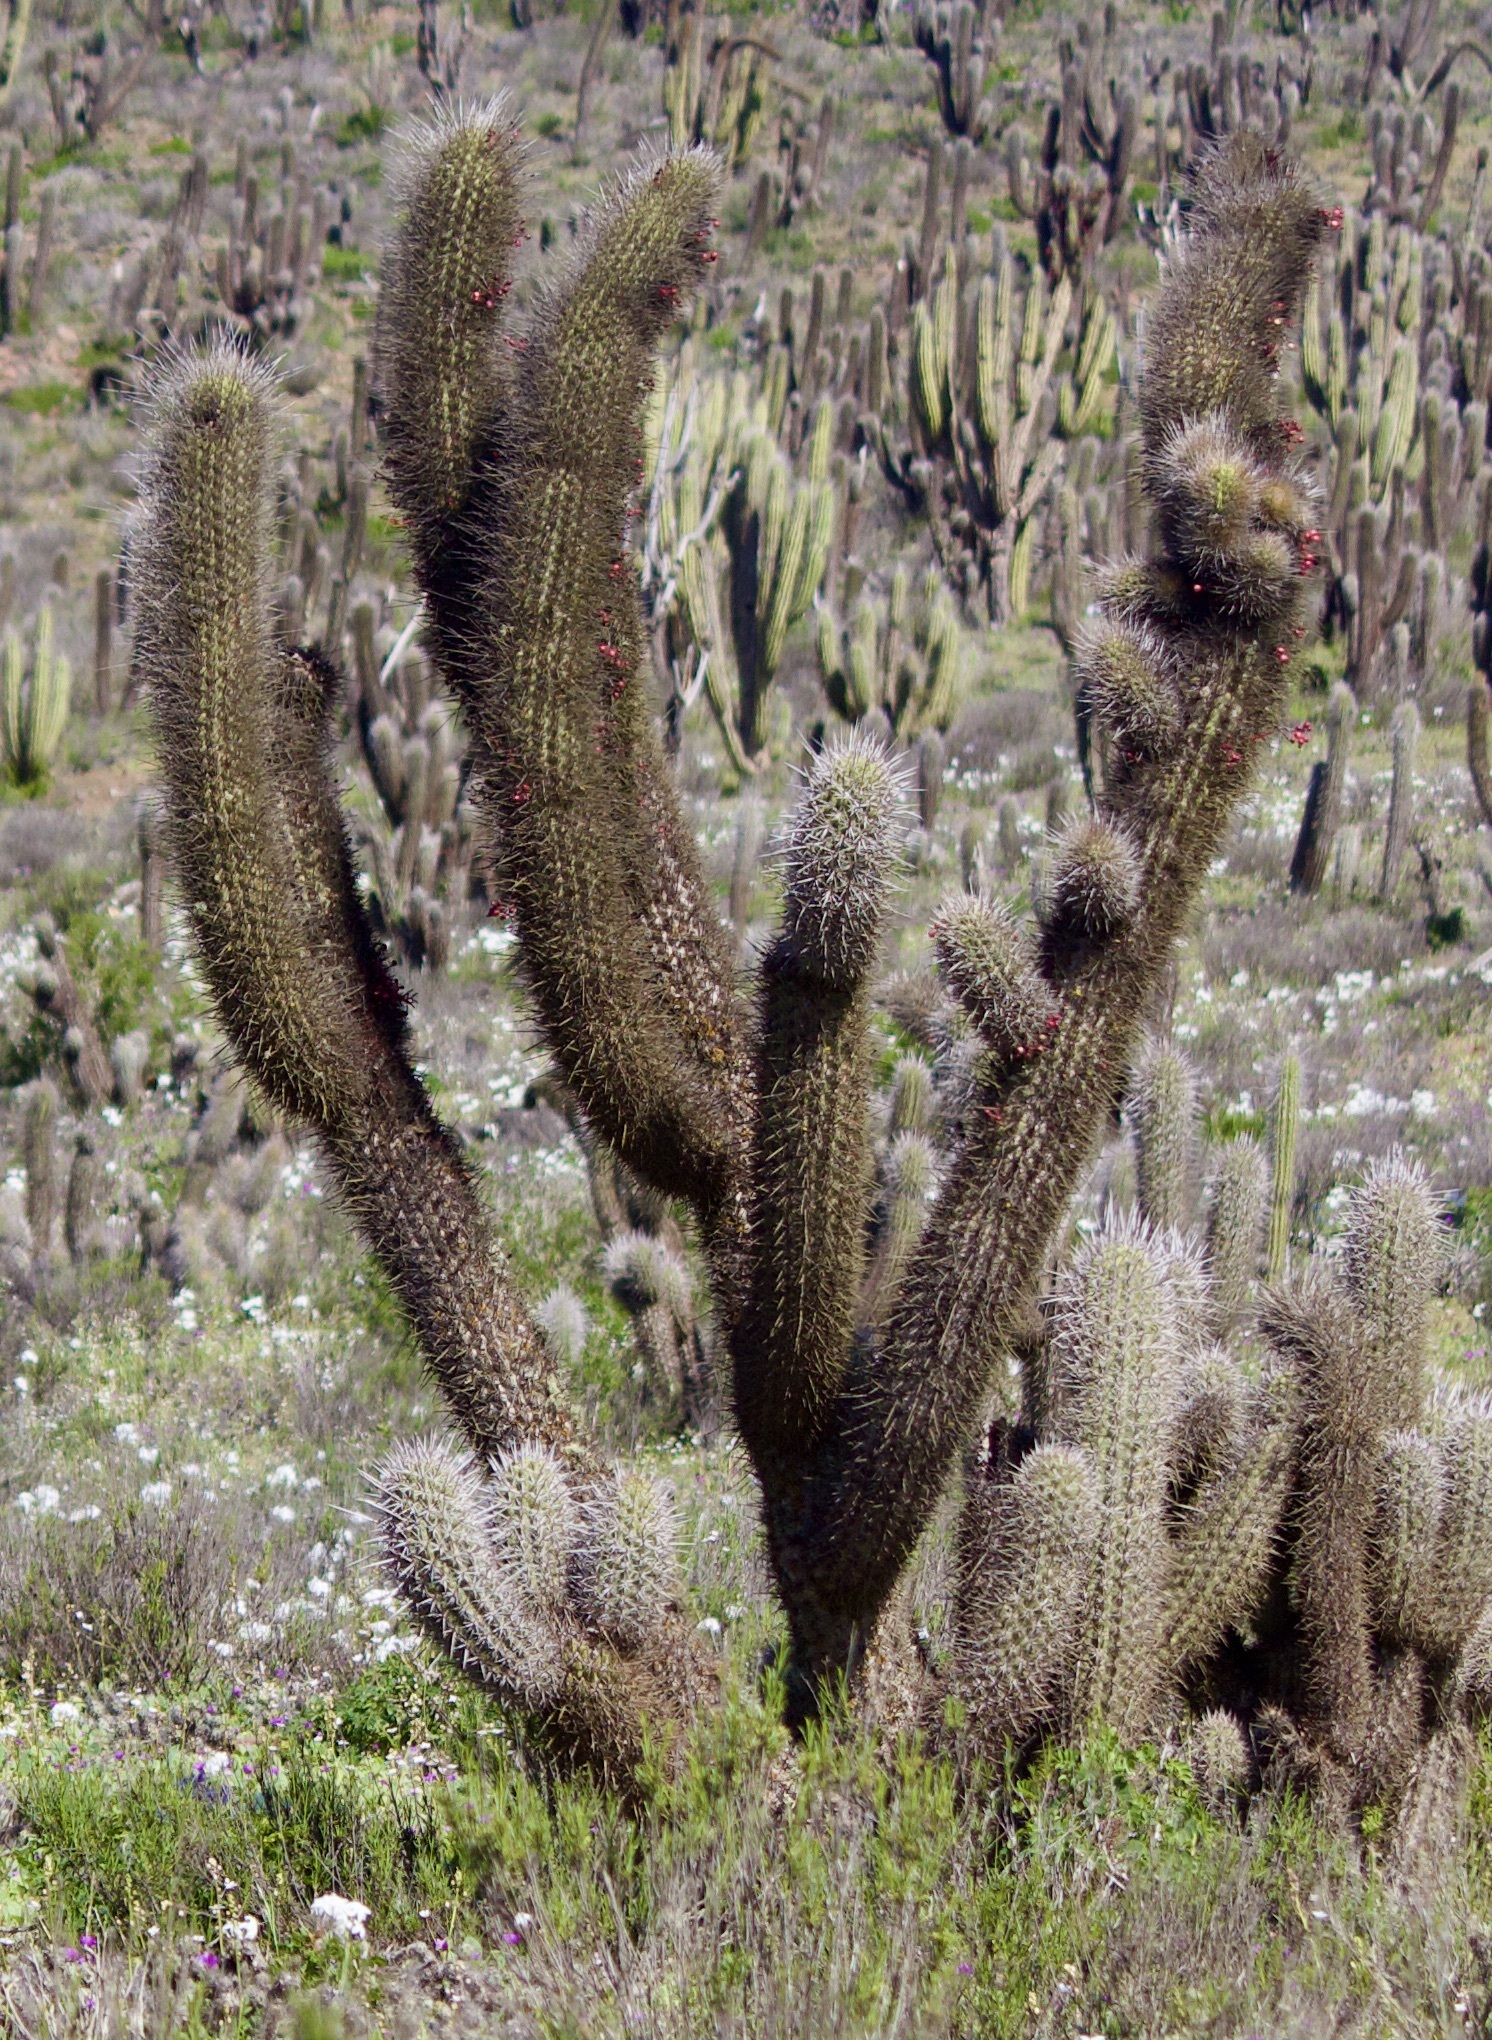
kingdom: Plantae
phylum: Tracheophyta
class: Magnoliopsida
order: Caryophyllales
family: Cactaceae
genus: Leucostele
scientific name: Leucostele chiloensis
